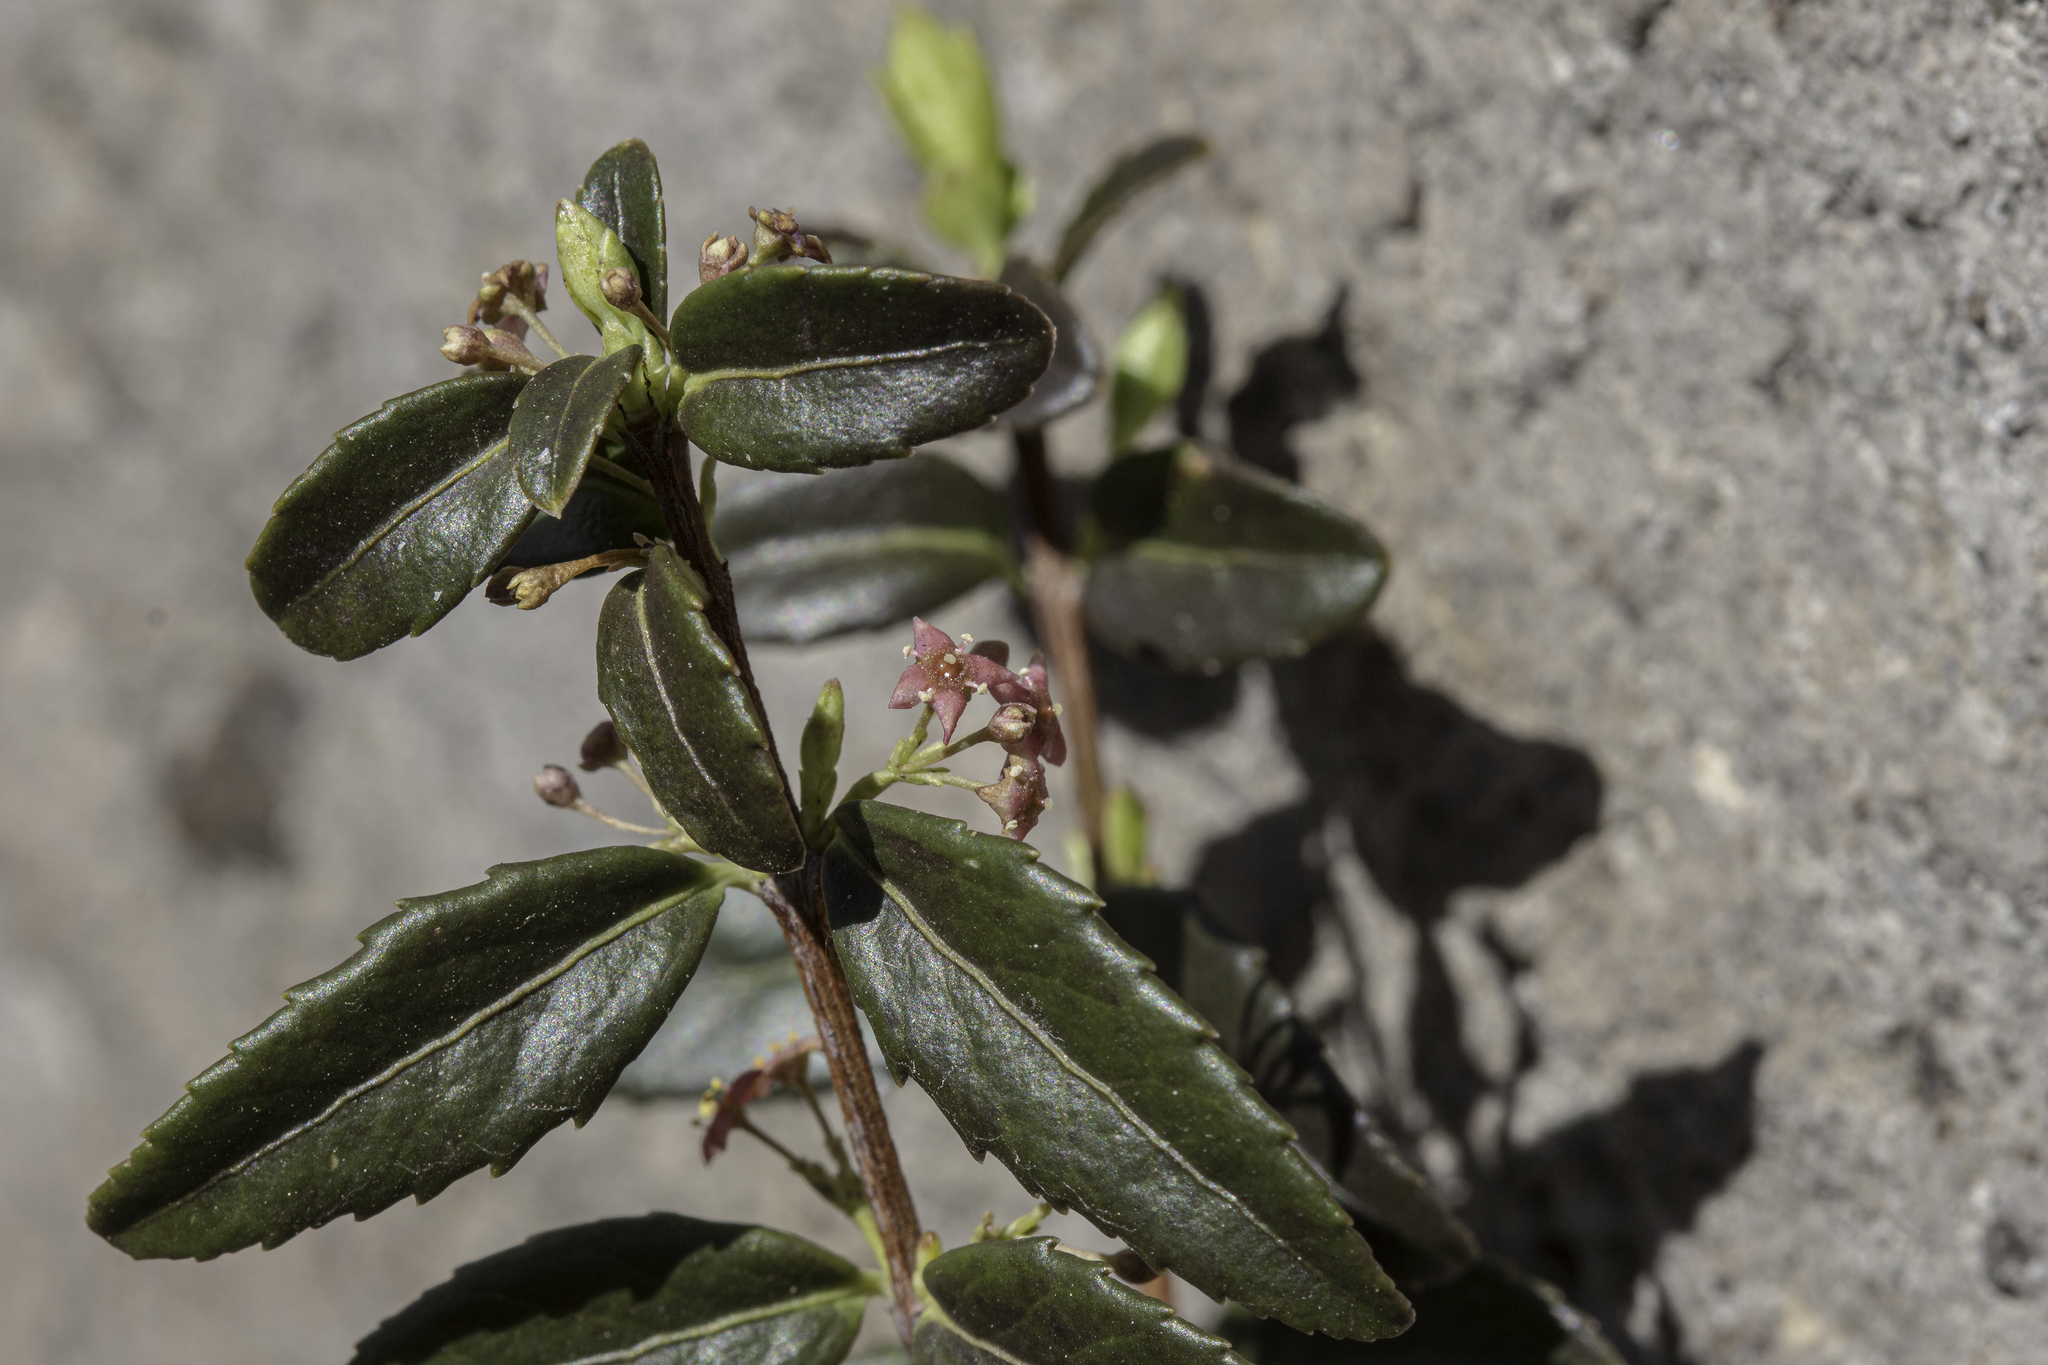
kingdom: Plantae
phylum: Tracheophyta
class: Magnoliopsida
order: Celastrales
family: Celastraceae
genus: Paxistima
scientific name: Paxistima myrsinites
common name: Mountain-lover
